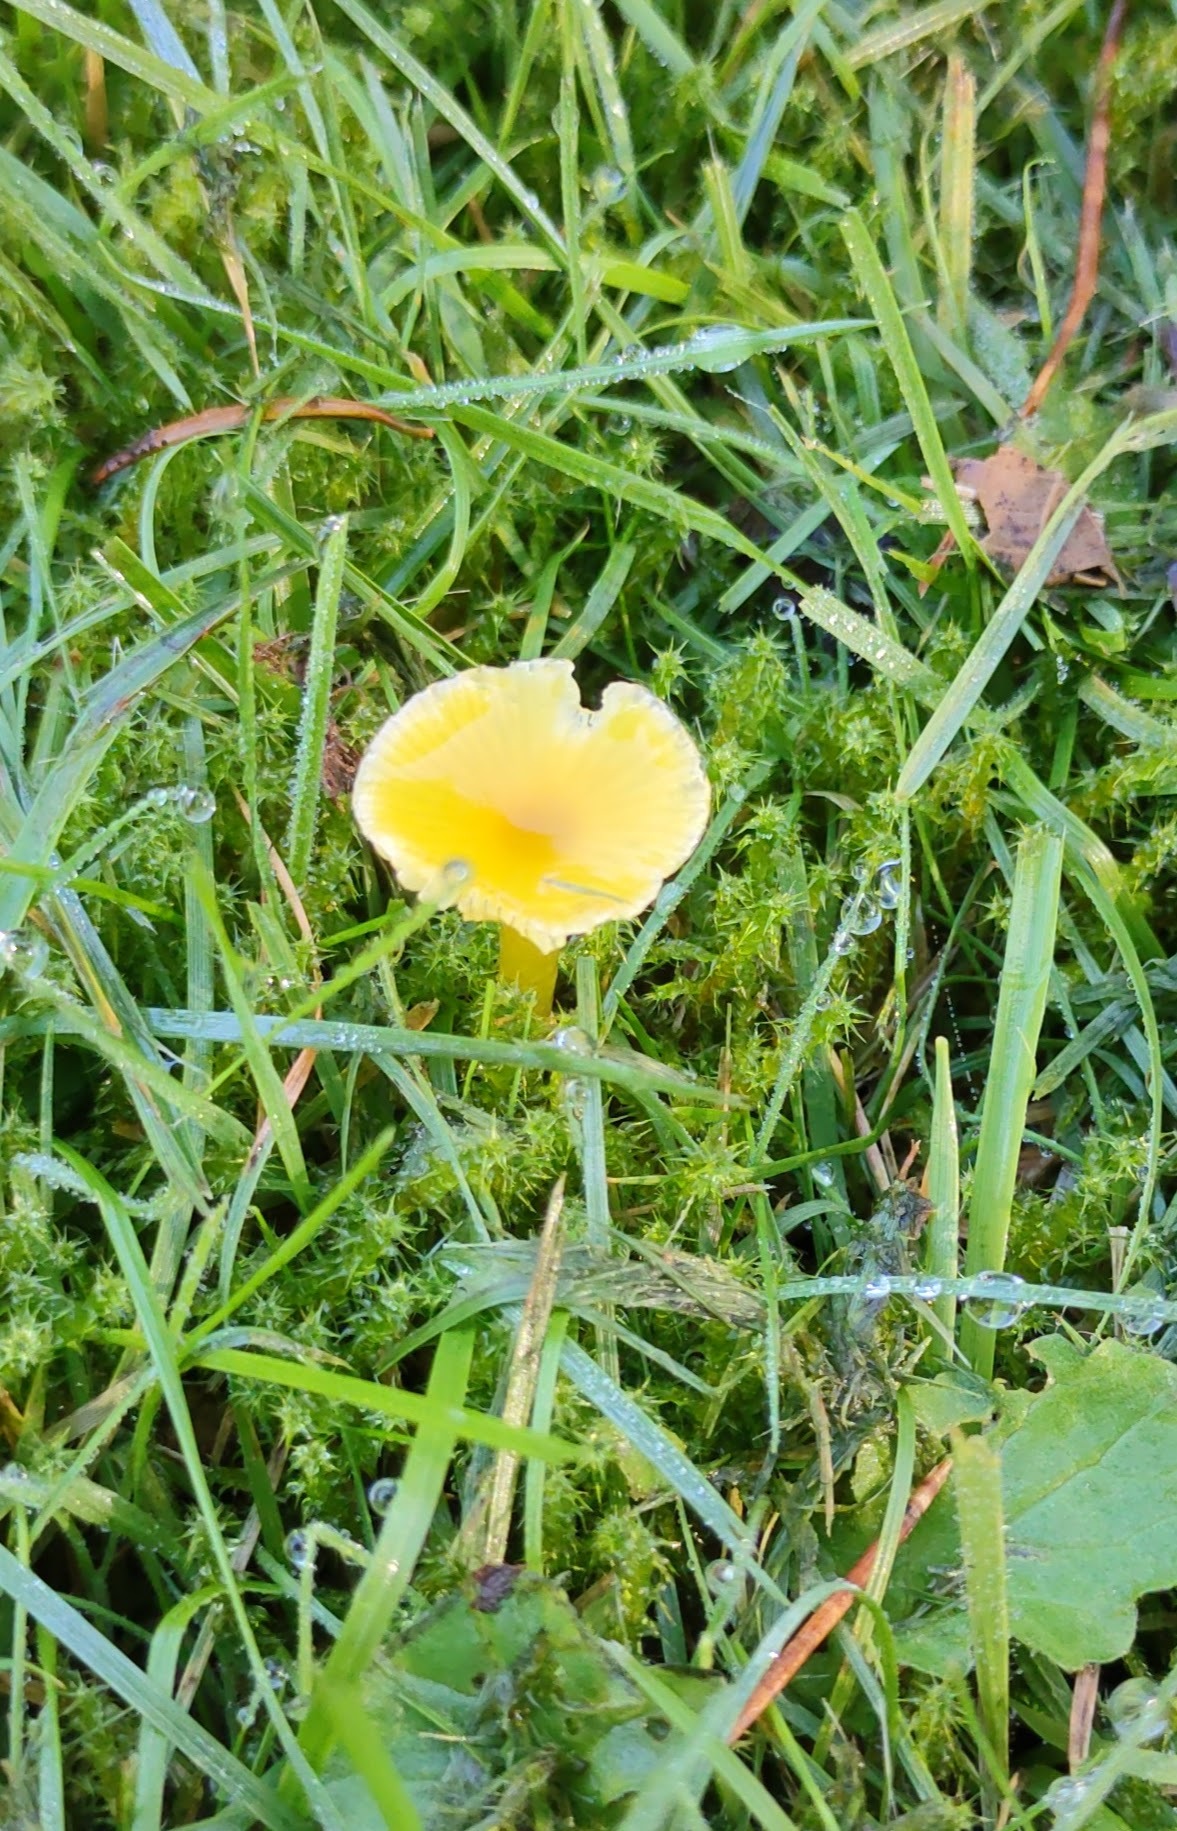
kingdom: Fungi
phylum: Basidiomycota
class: Agaricomycetes
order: Agaricales
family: Hygrophoraceae
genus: Hygrocybe
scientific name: Hygrocybe glutinipes
